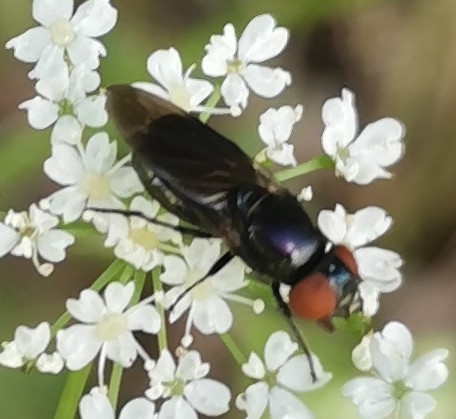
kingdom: Animalia
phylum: Arthropoda
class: Insecta
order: Diptera
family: Syrphidae
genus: Chrysogaster
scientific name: Chrysogaster solstitialis
